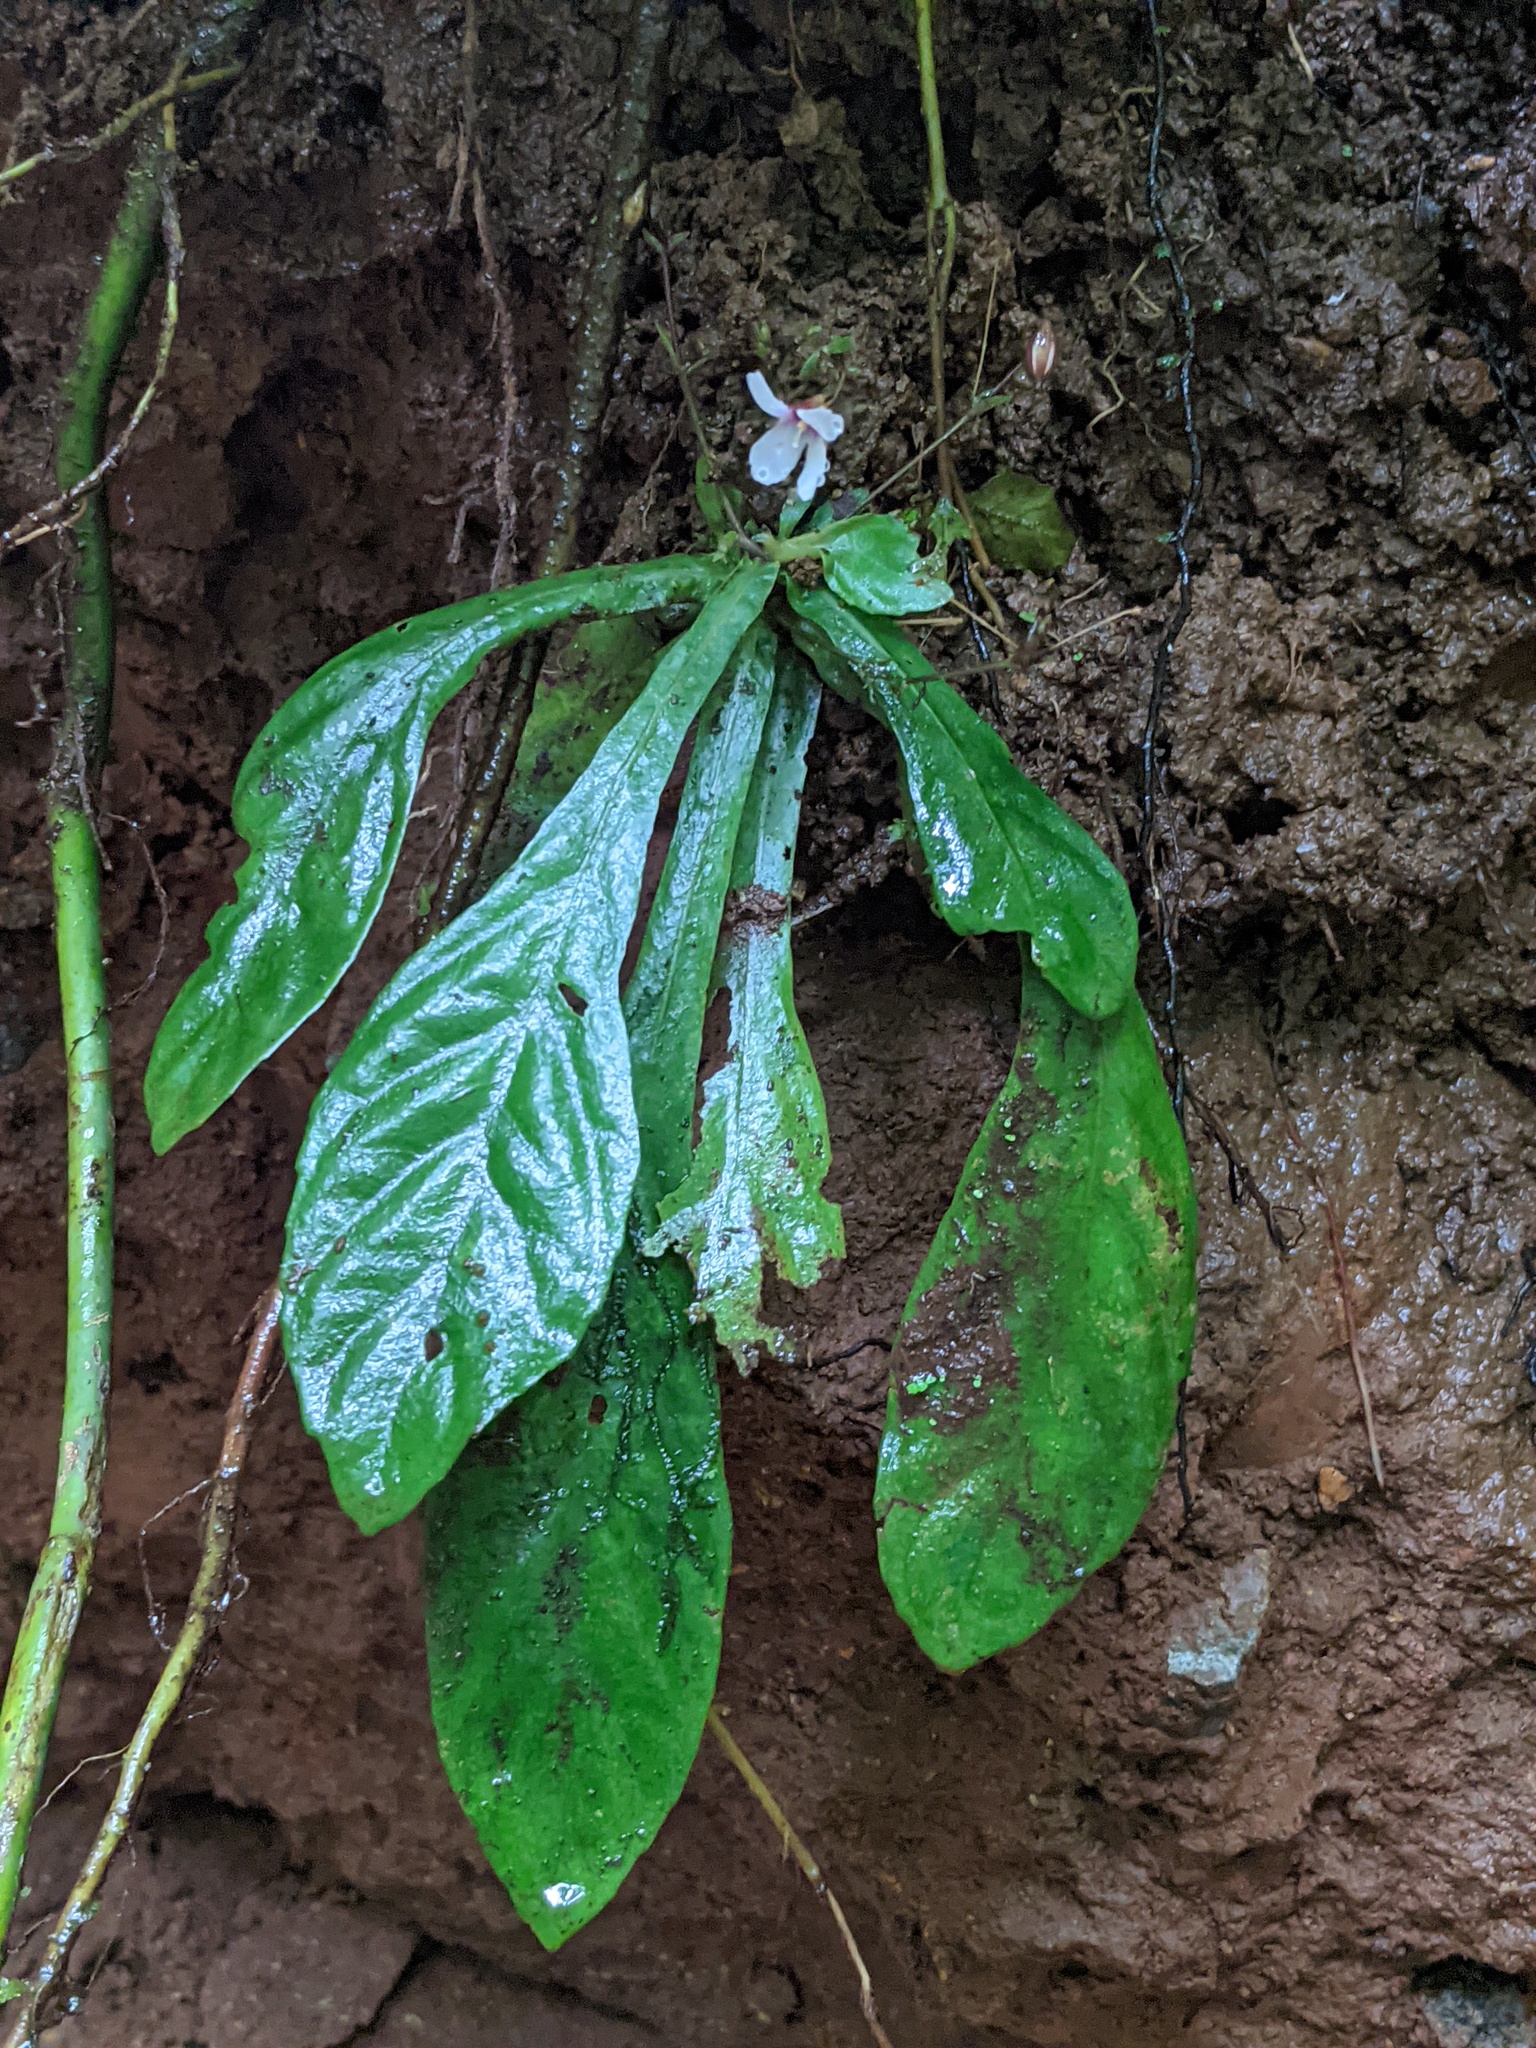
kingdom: Plantae
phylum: Tracheophyta
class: Magnoliopsida
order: Lamiales
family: Gesneriaceae
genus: Napeanthus
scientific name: Napeanthus apodemus
